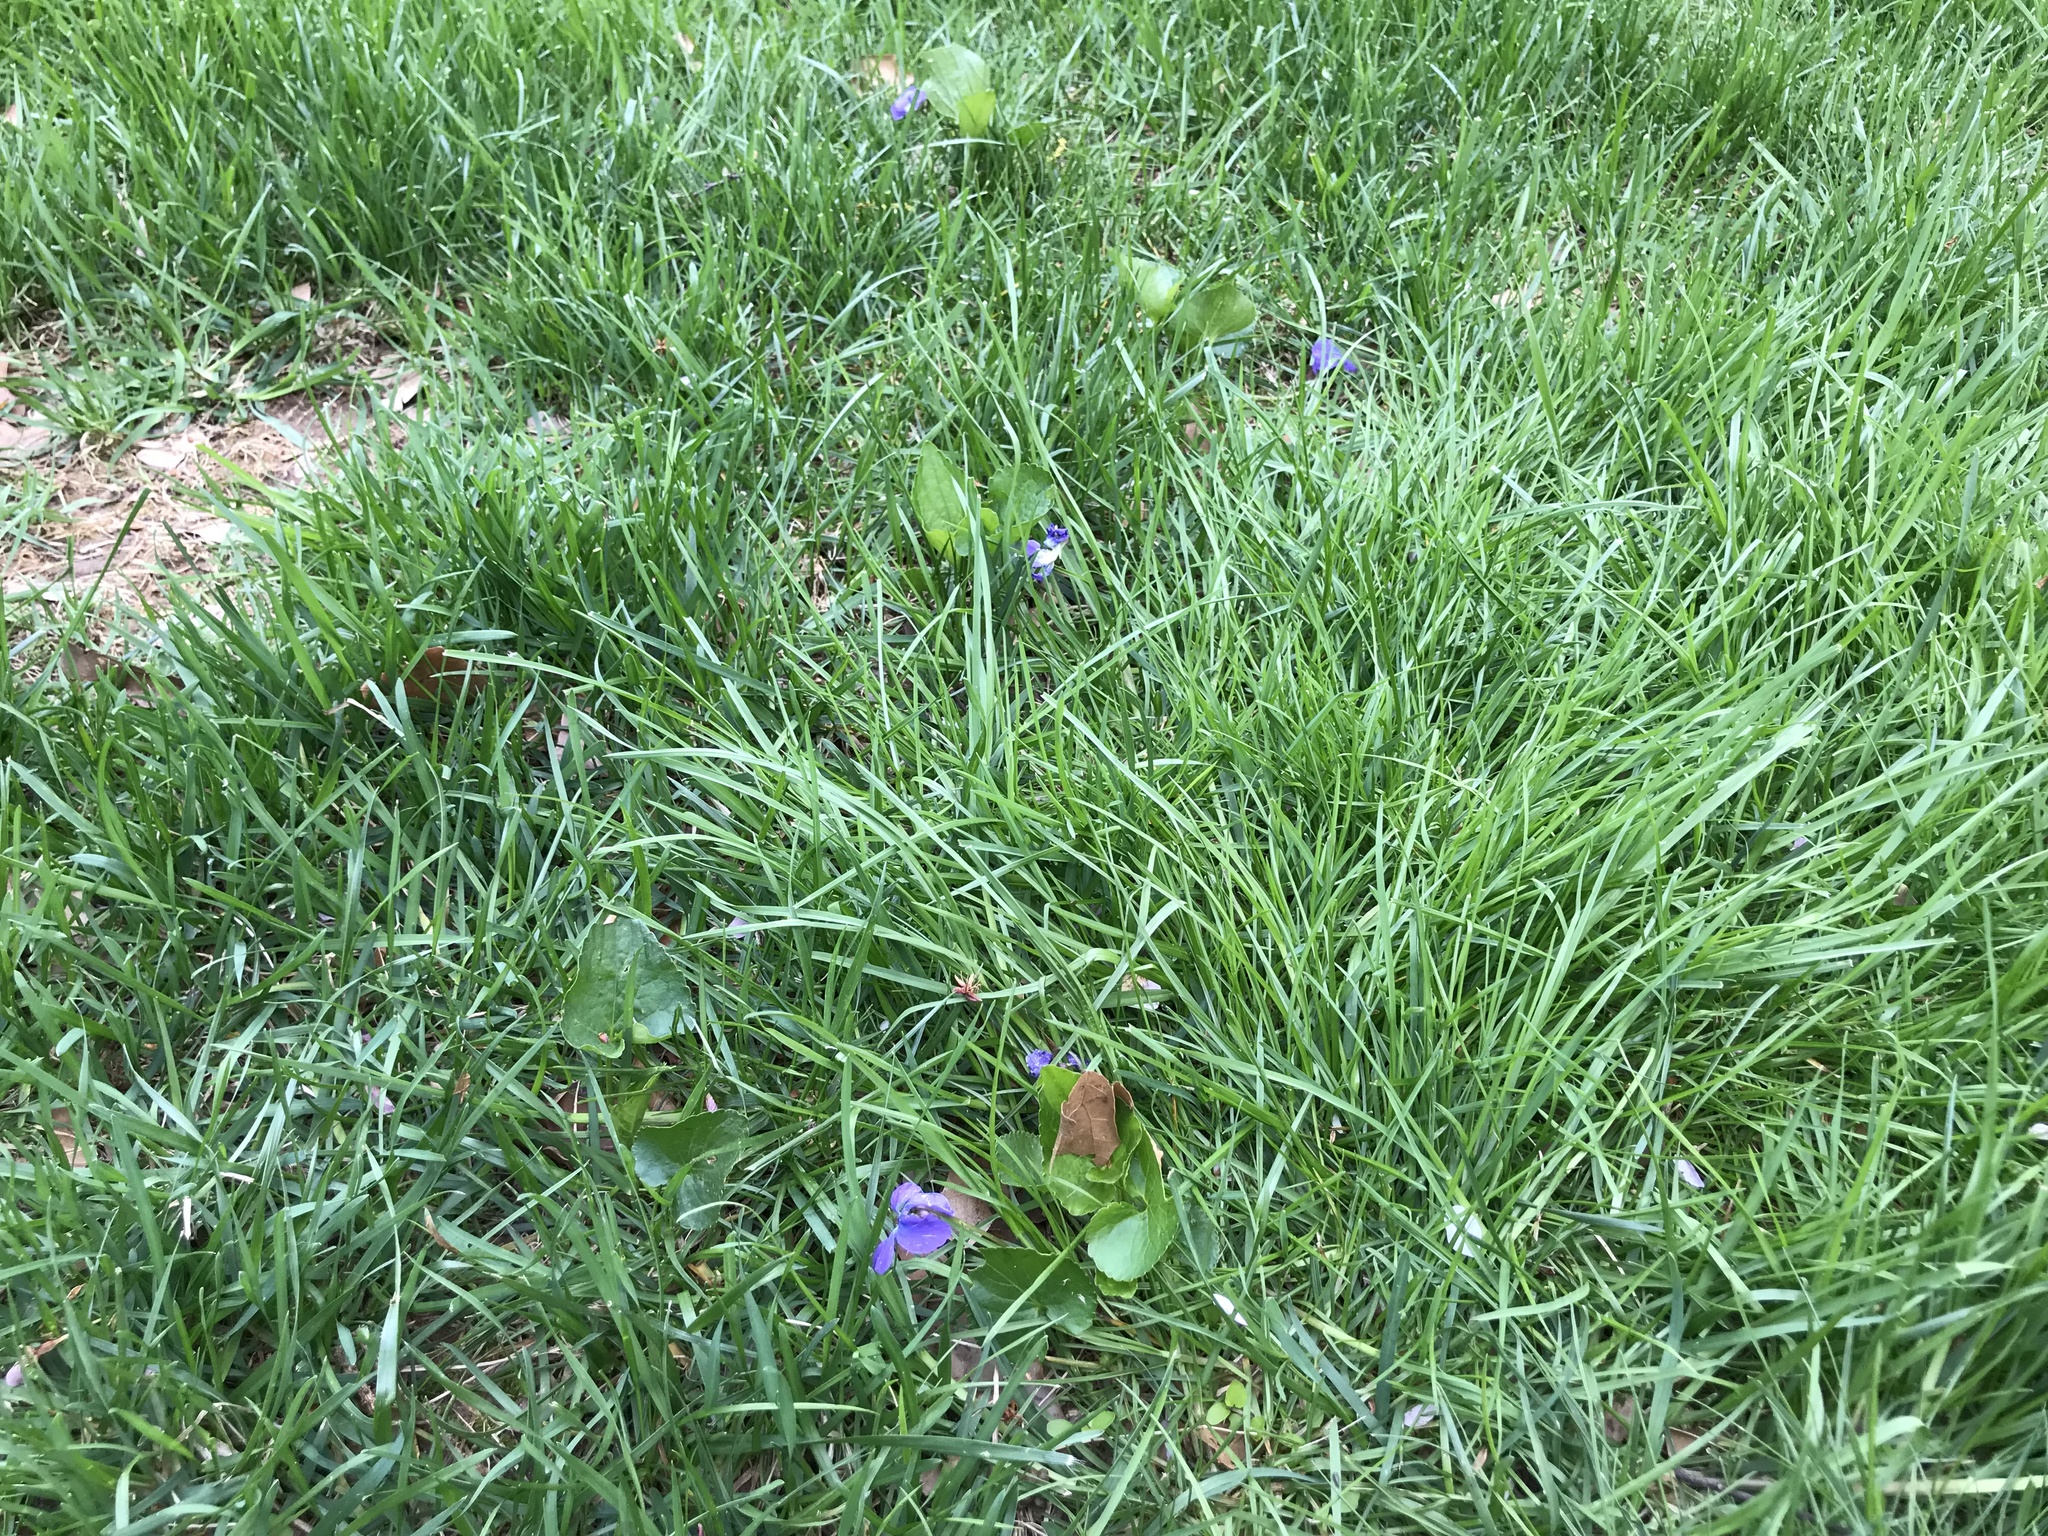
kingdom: Plantae
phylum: Tracheophyta
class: Magnoliopsida
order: Malpighiales
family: Violaceae
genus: Viola
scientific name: Viola sororia
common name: Dooryard violet
